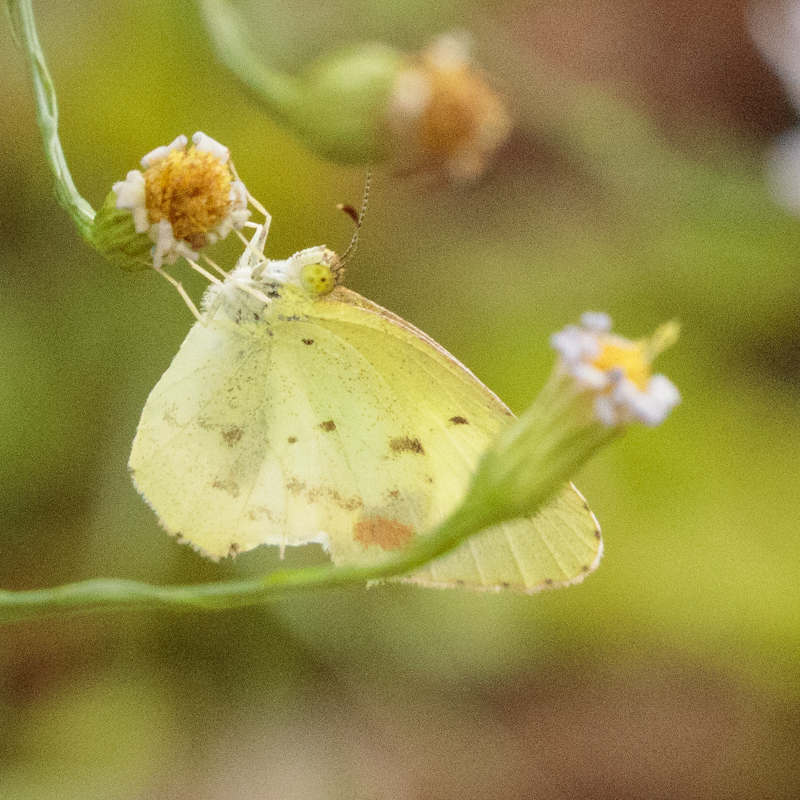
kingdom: Animalia
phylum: Arthropoda
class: Insecta
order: Lepidoptera
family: Pieridae
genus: Pyrisitia
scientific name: Pyrisitia lisa
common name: Little yellow
